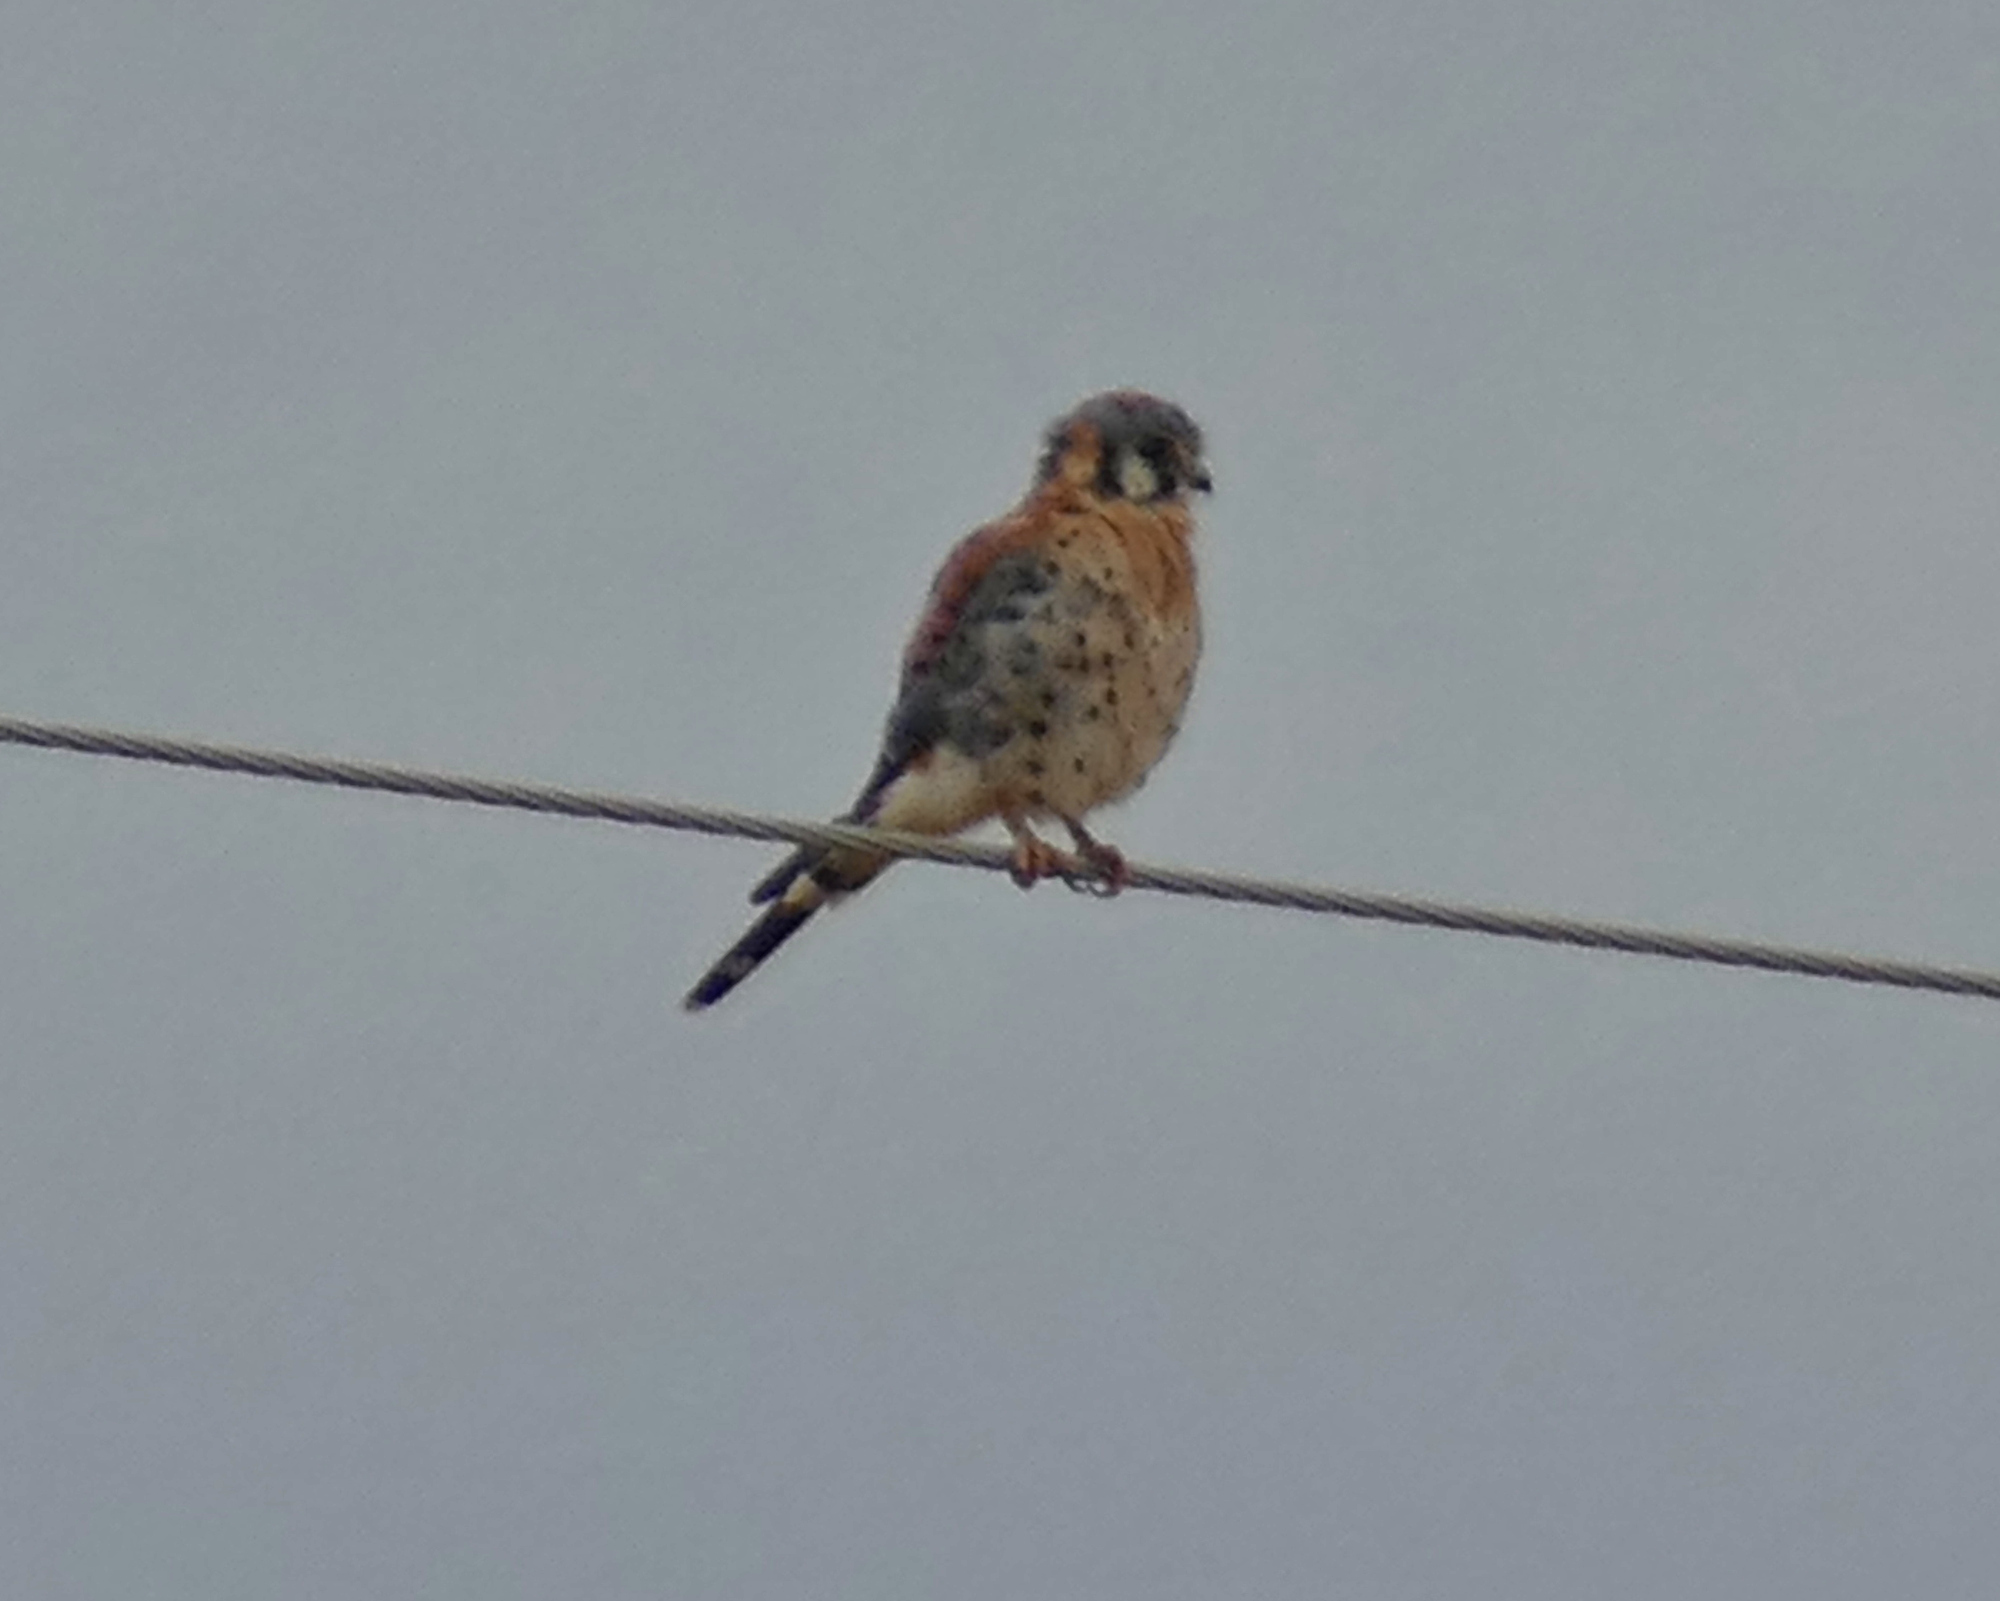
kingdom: Animalia
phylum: Chordata
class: Aves
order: Falconiformes
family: Falconidae
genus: Falco
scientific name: Falco sparverius
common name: American kestrel
